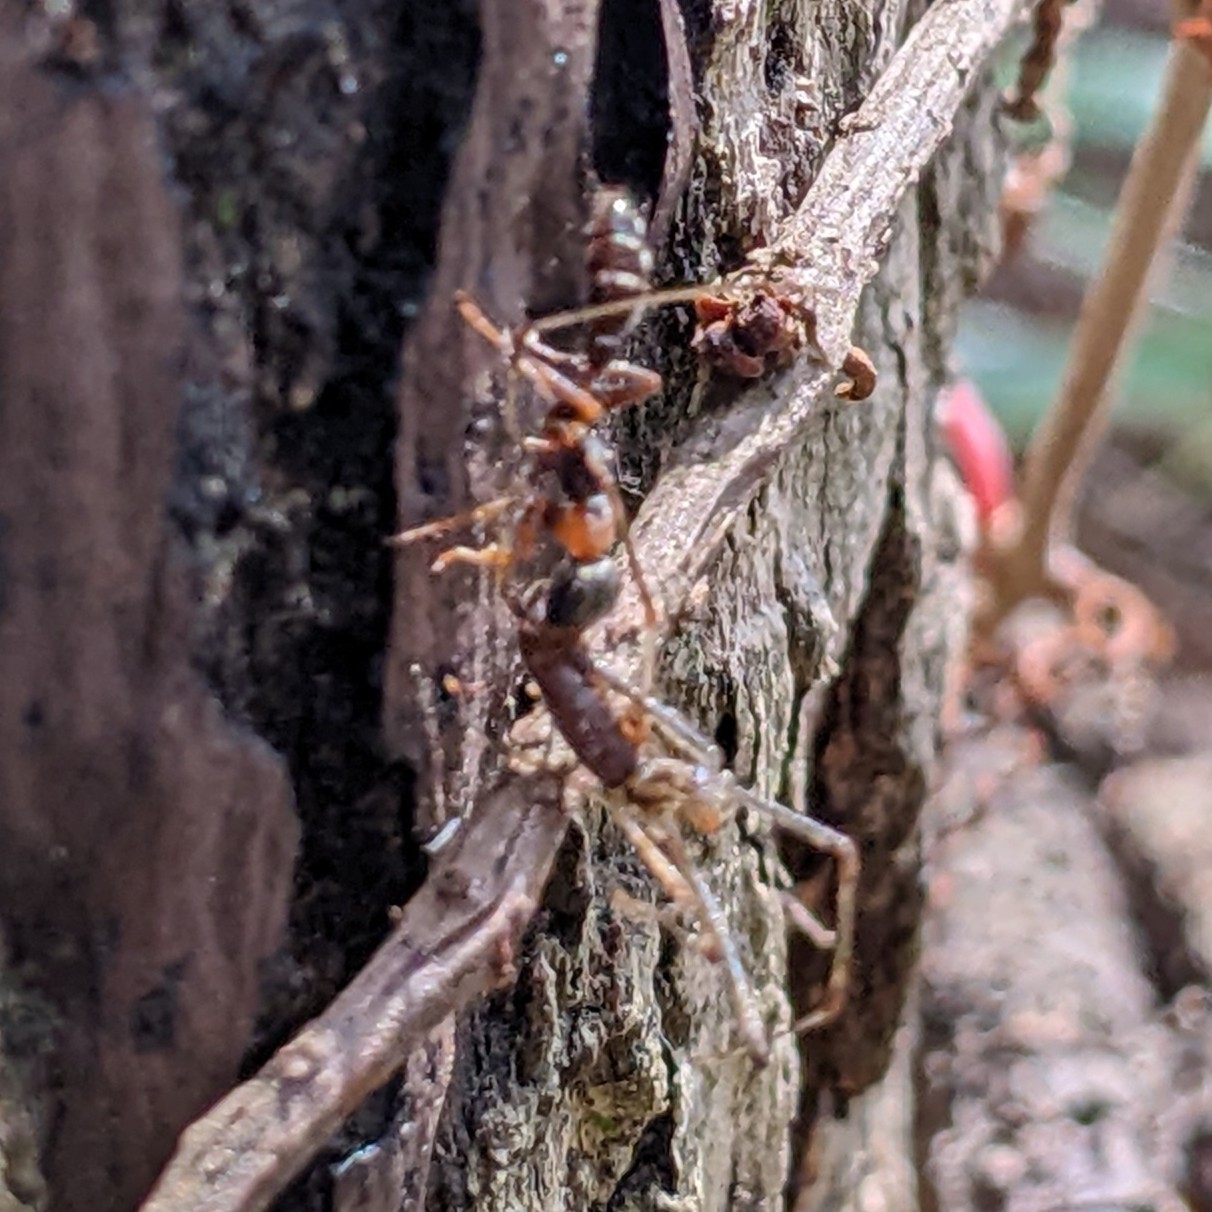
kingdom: Animalia
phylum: Arthropoda
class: Insecta
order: Hymenoptera
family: Formicidae
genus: Pseudomyrmex
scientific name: Pseudomyrmex gracilis
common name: Graceful twig ant
